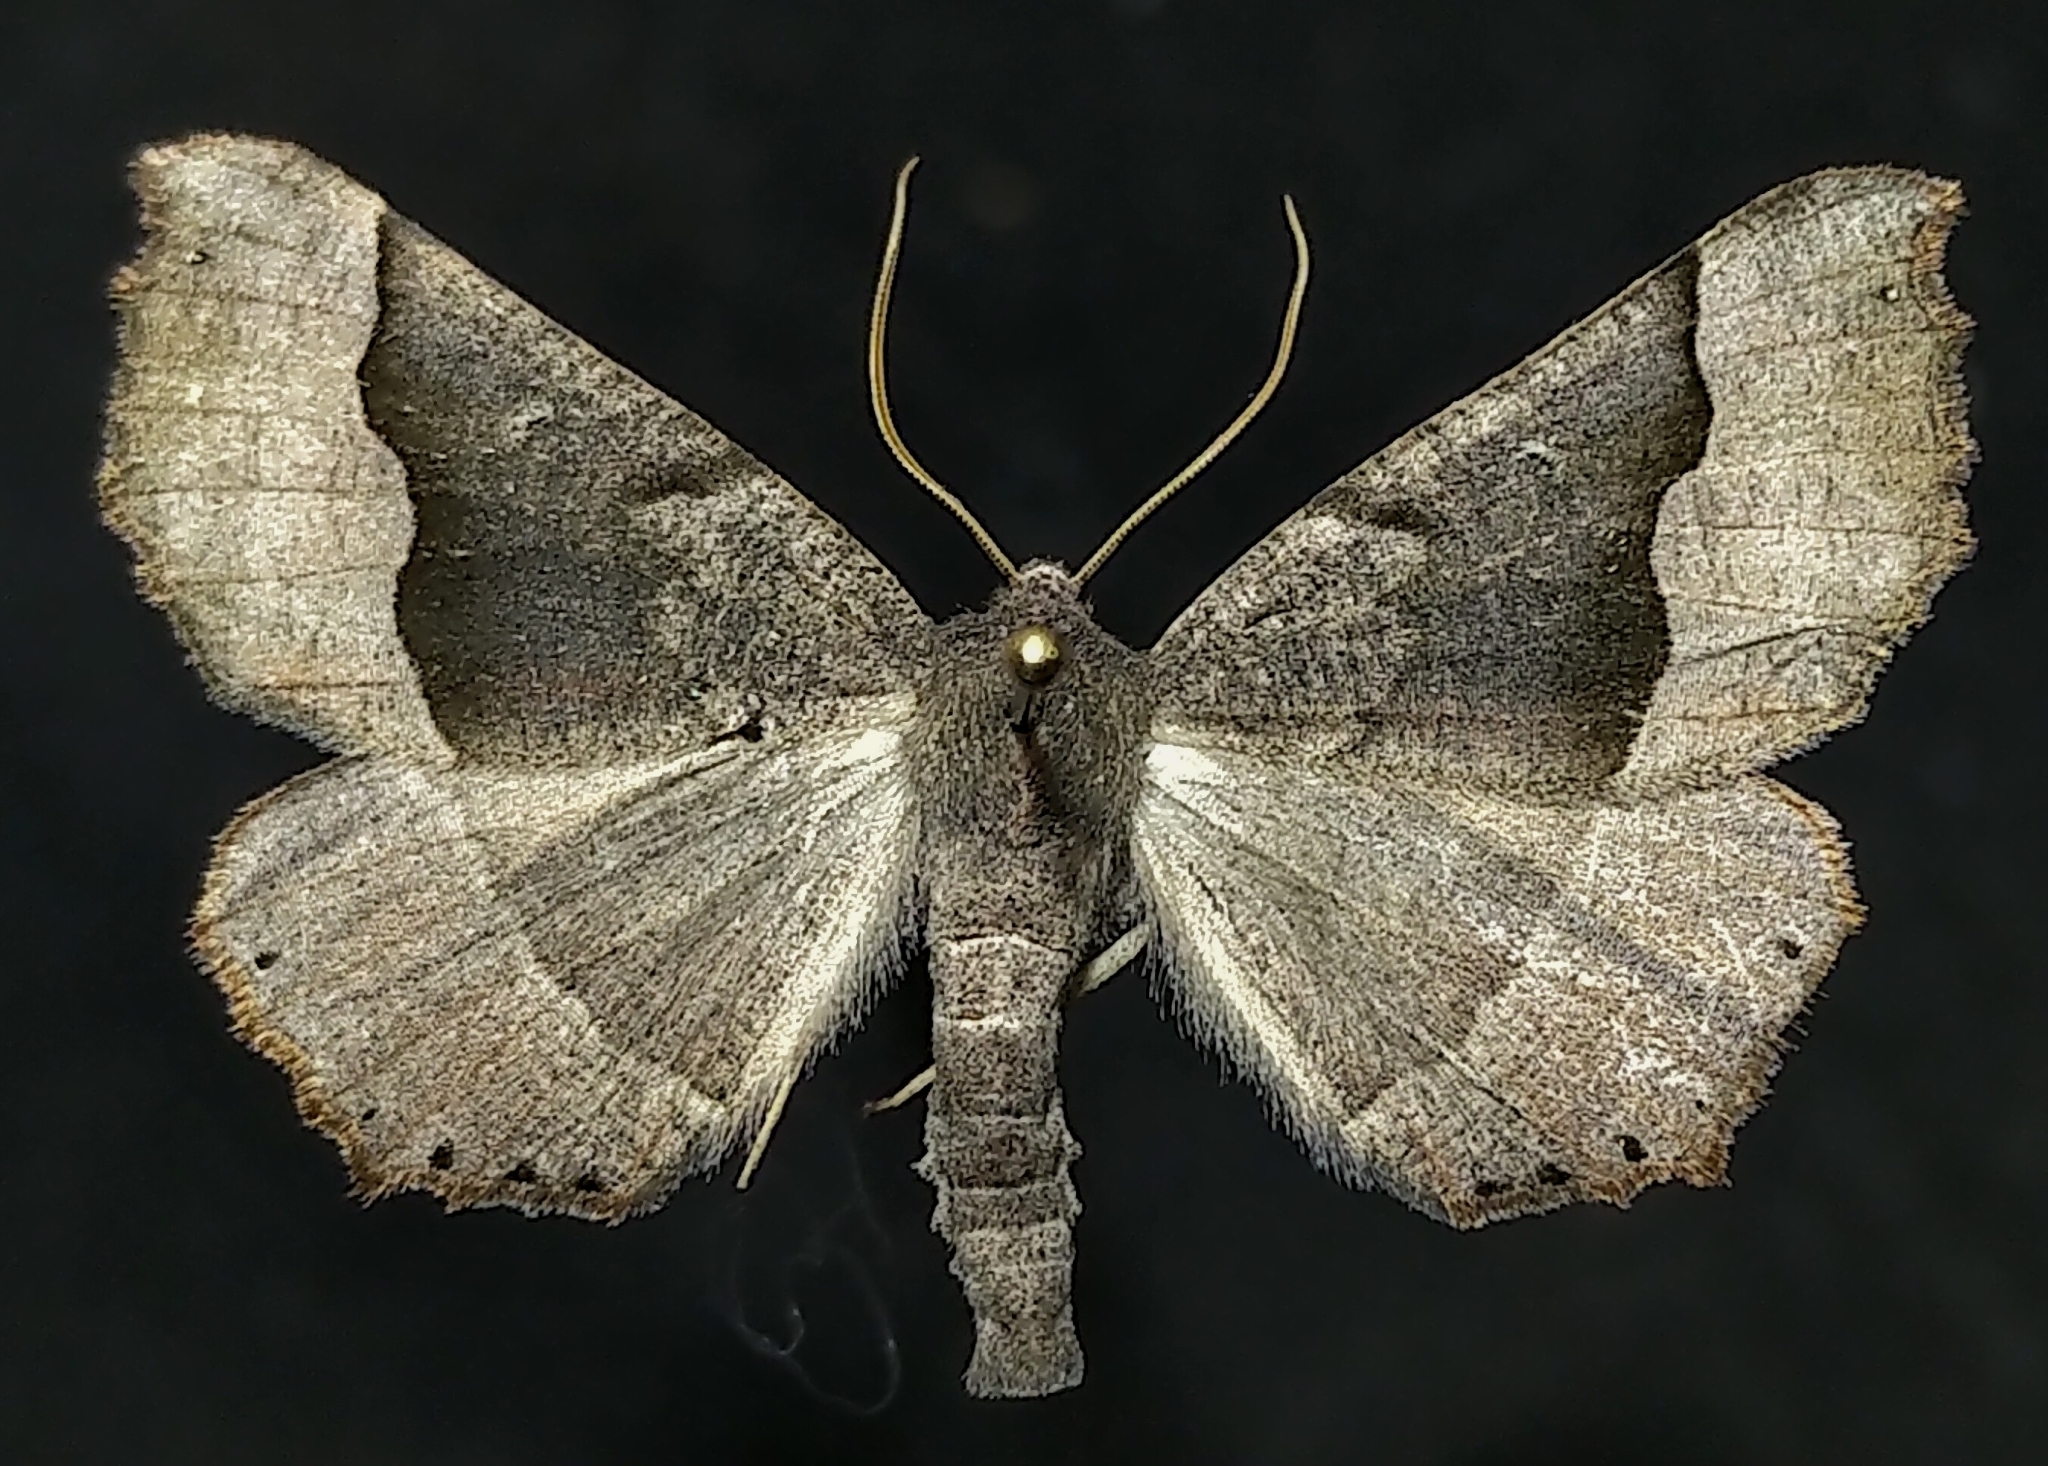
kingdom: Animalia
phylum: Arthropoda
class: Insecta
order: Lepidoptera
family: Geometridae
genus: Pero
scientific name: Pero honestaria
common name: Honest pero
